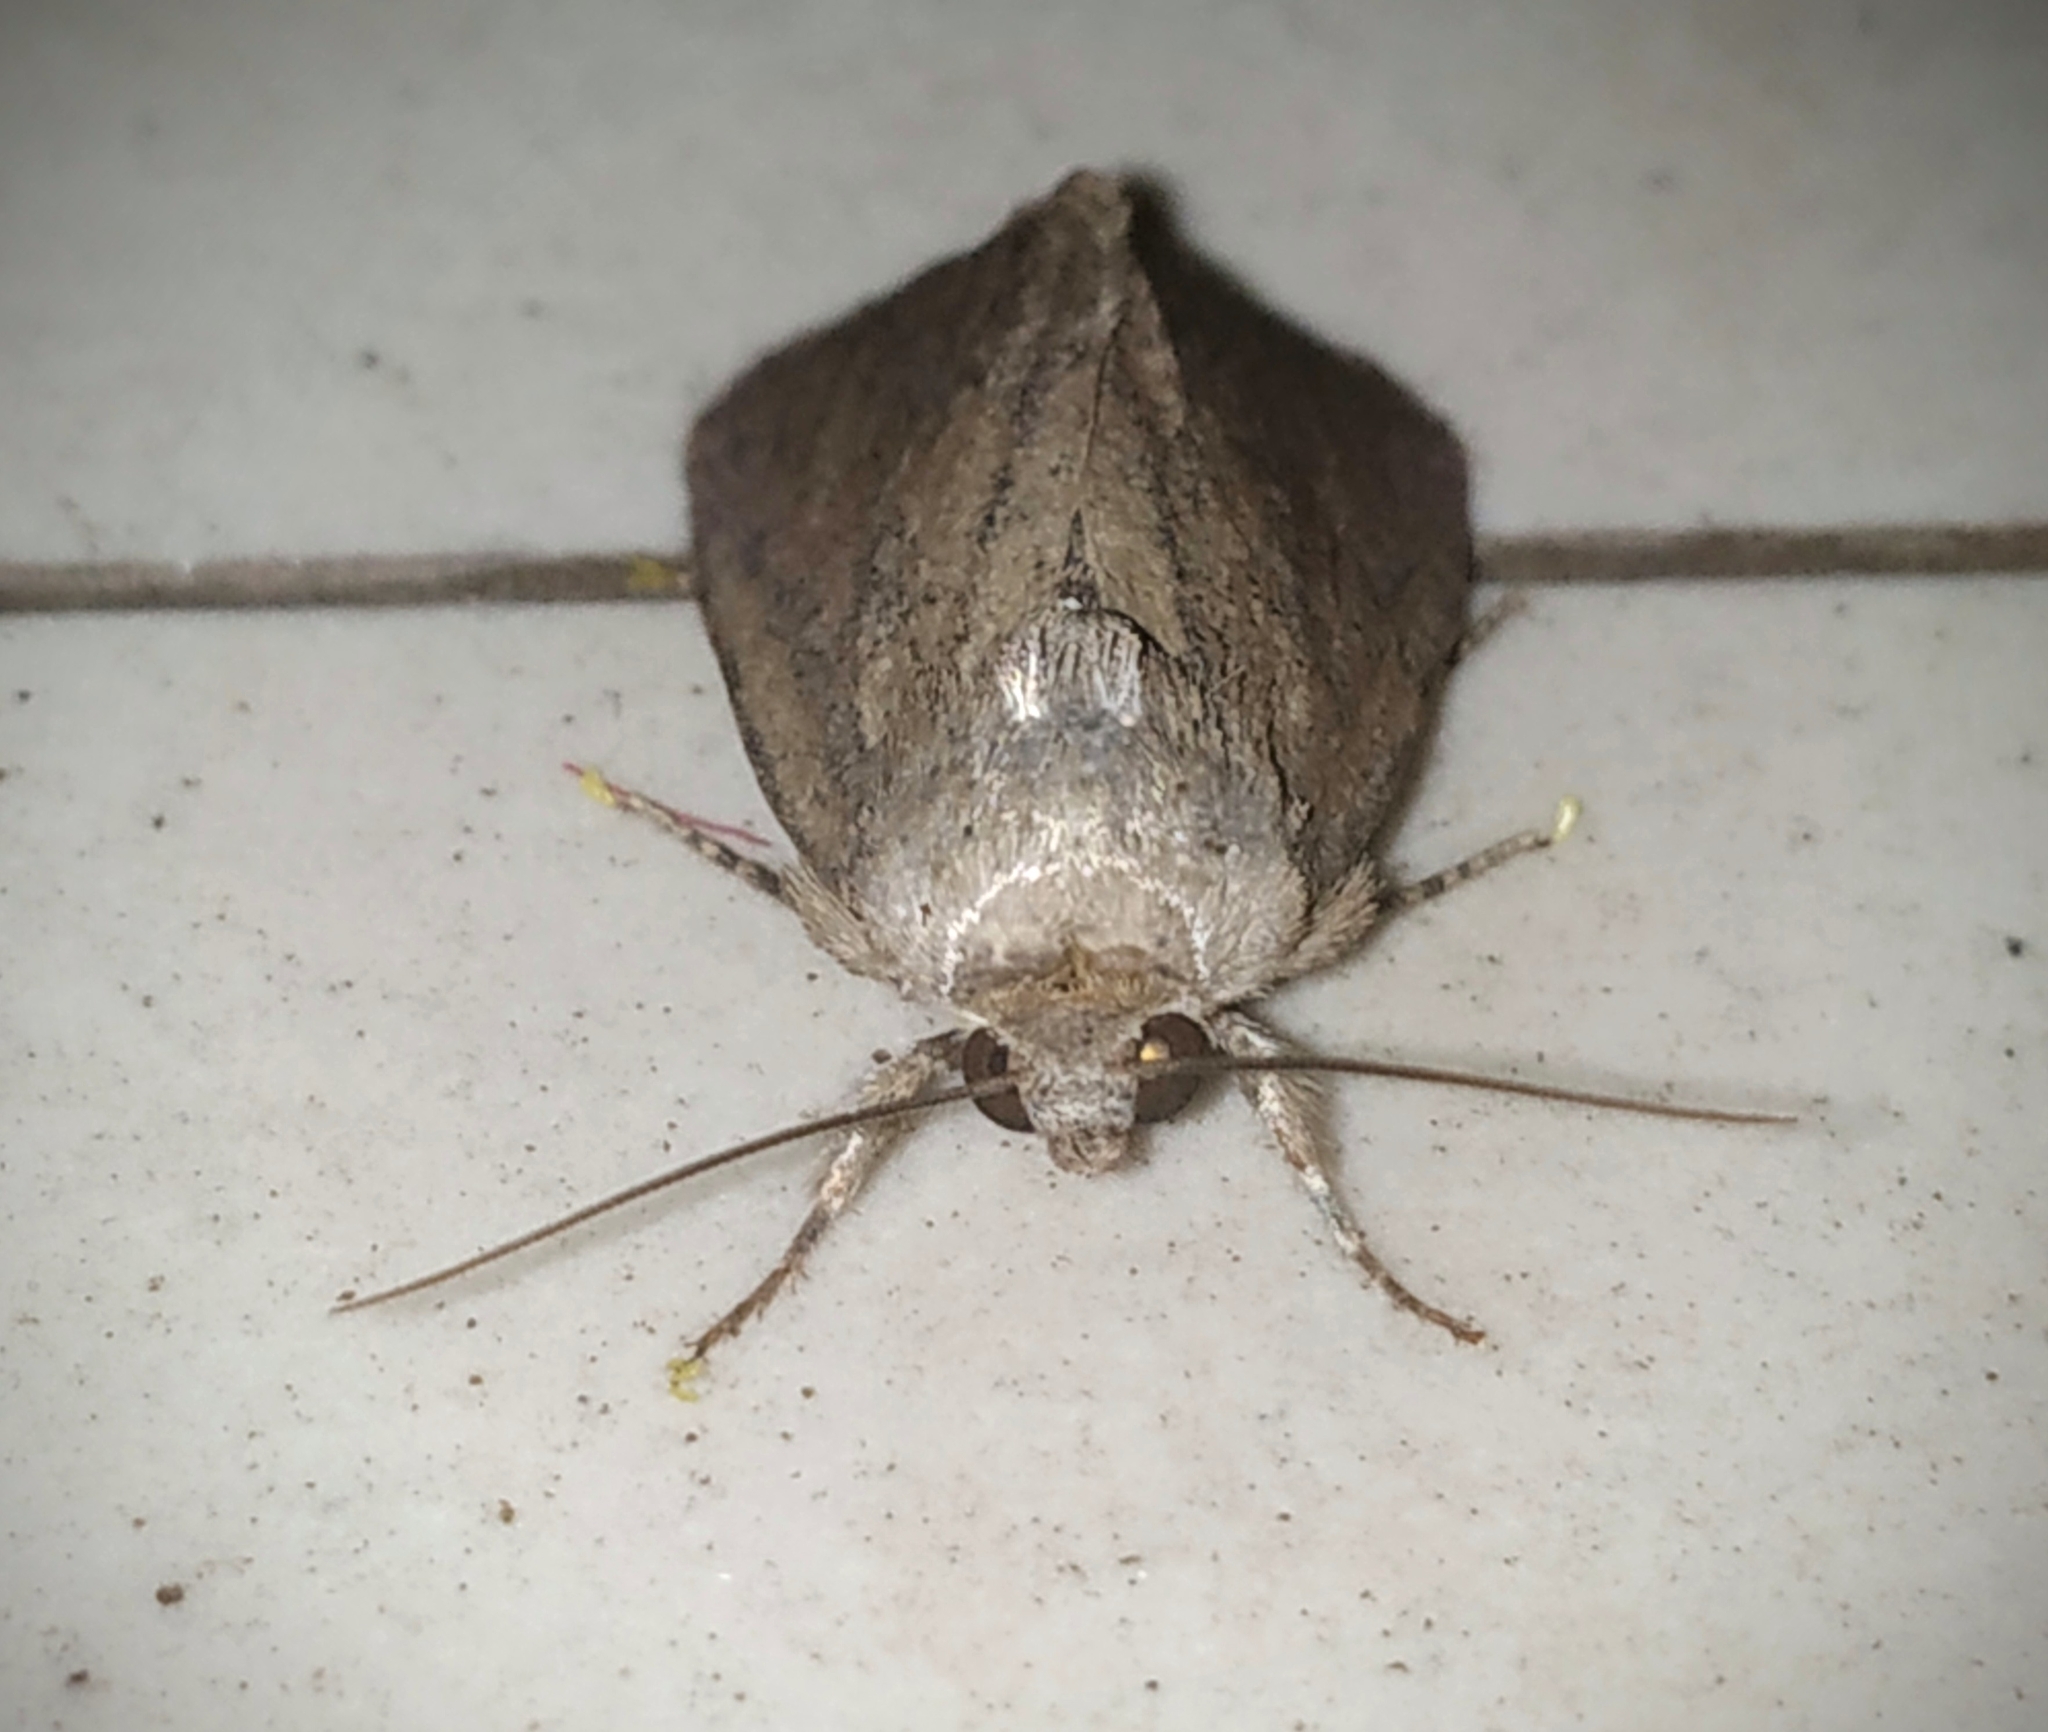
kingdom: Animalia
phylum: Arthropoda
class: Insecta
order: Lepidoptera
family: Noctuidae
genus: Spodoptera
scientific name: Spodoptera pecten
